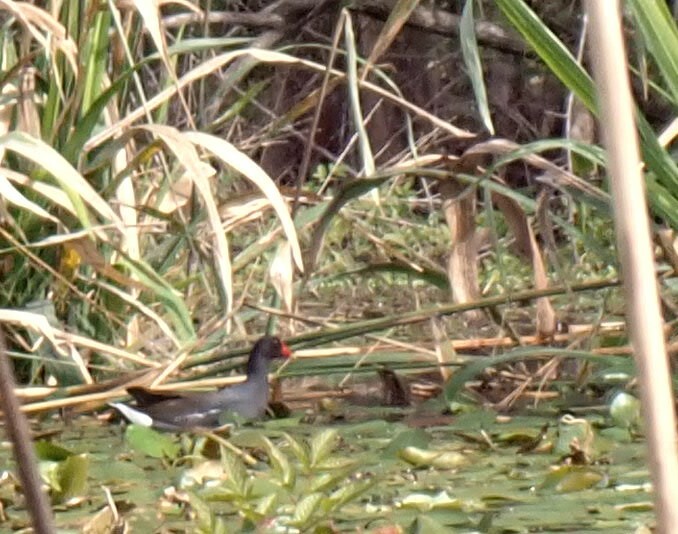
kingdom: Animalia
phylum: Chordata
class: Aves
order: Gruiformes
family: Rallidae
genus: Gallinula
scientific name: Gallinula chloropus
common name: Common moorhen
